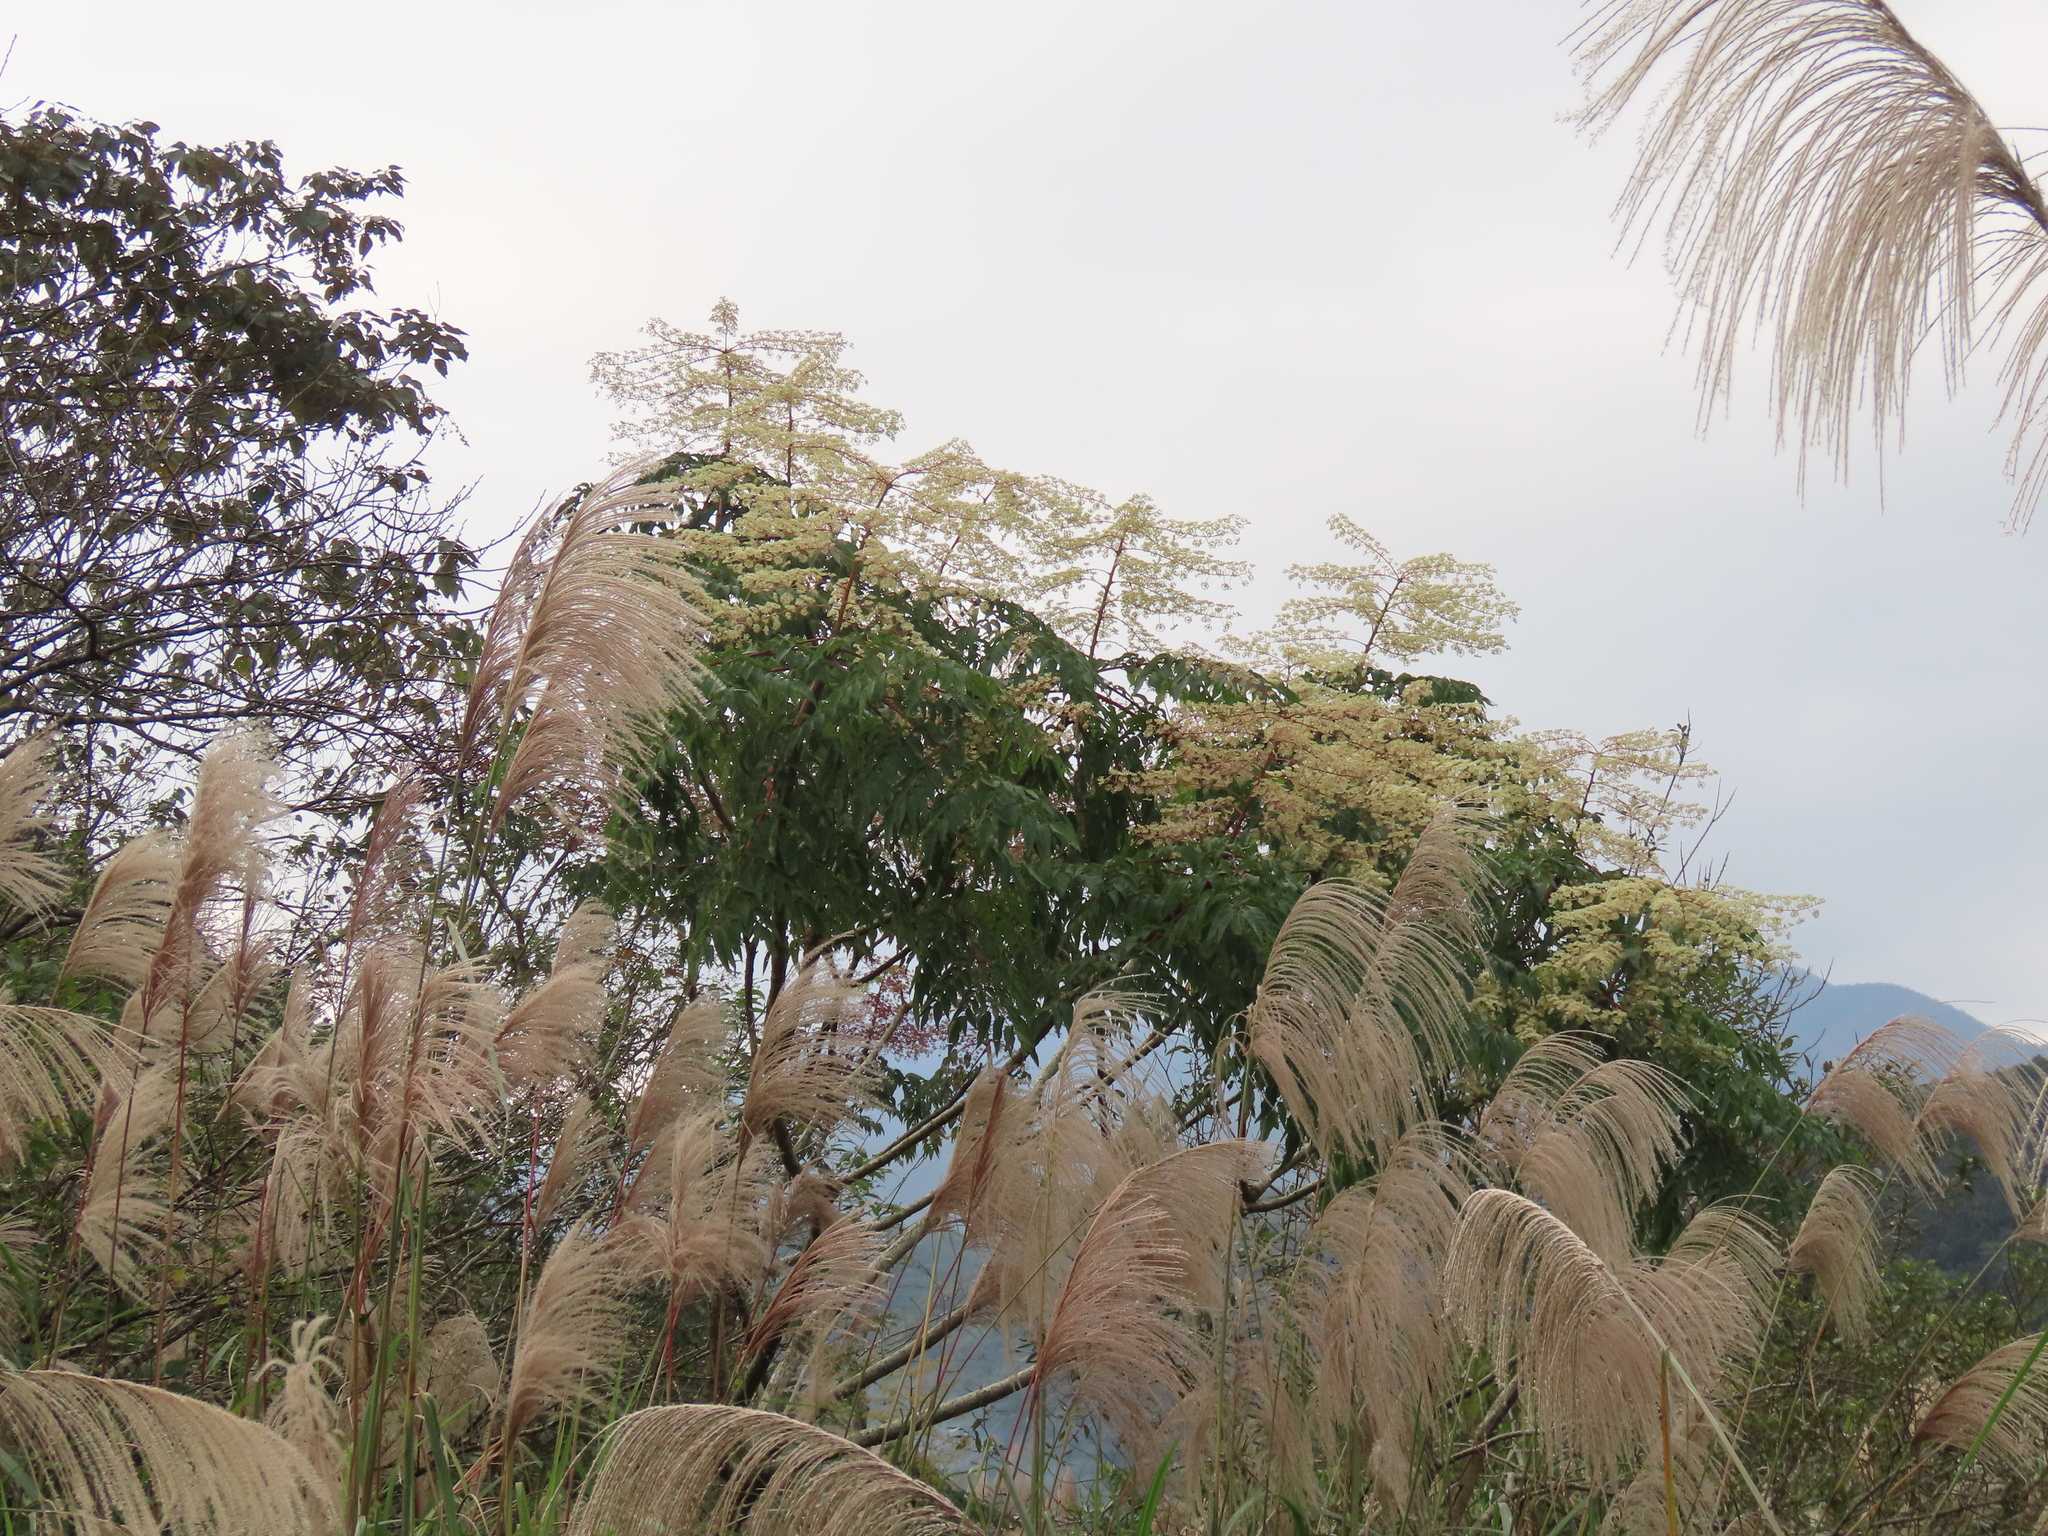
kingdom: Plantae
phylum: Tracheophyta
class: Magnoliopsida
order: Apiales
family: Araliaceae
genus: Aralia
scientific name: Aralia bipinnata
